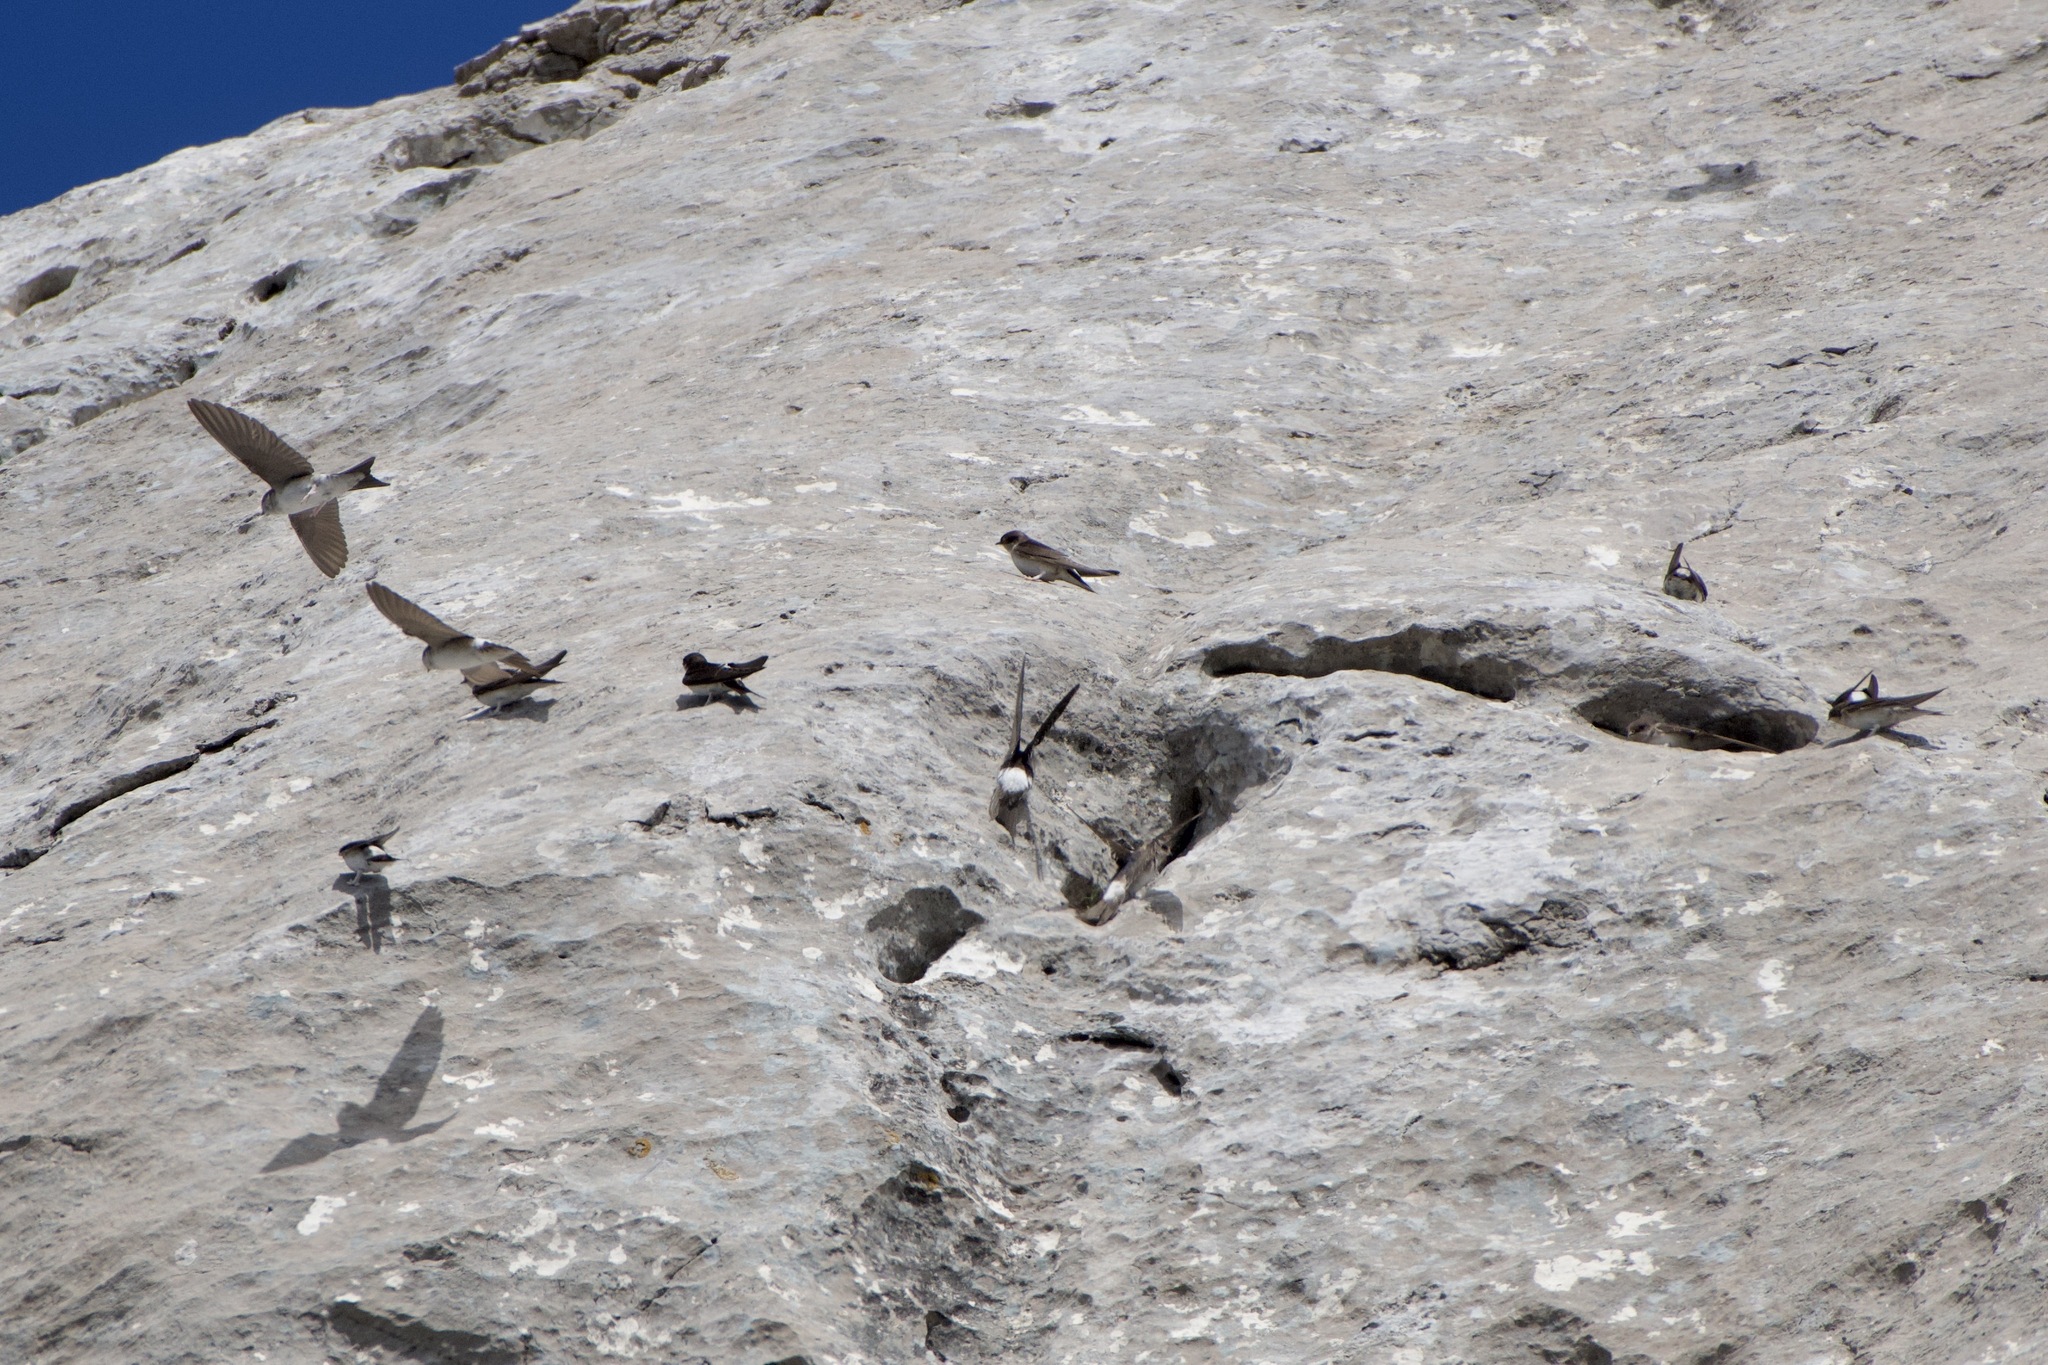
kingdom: Animalia
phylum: Chordata
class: Aves
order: Passeriformes
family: Hirundinidae
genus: Delichon
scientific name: Delichon urbicum
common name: Common house martin
